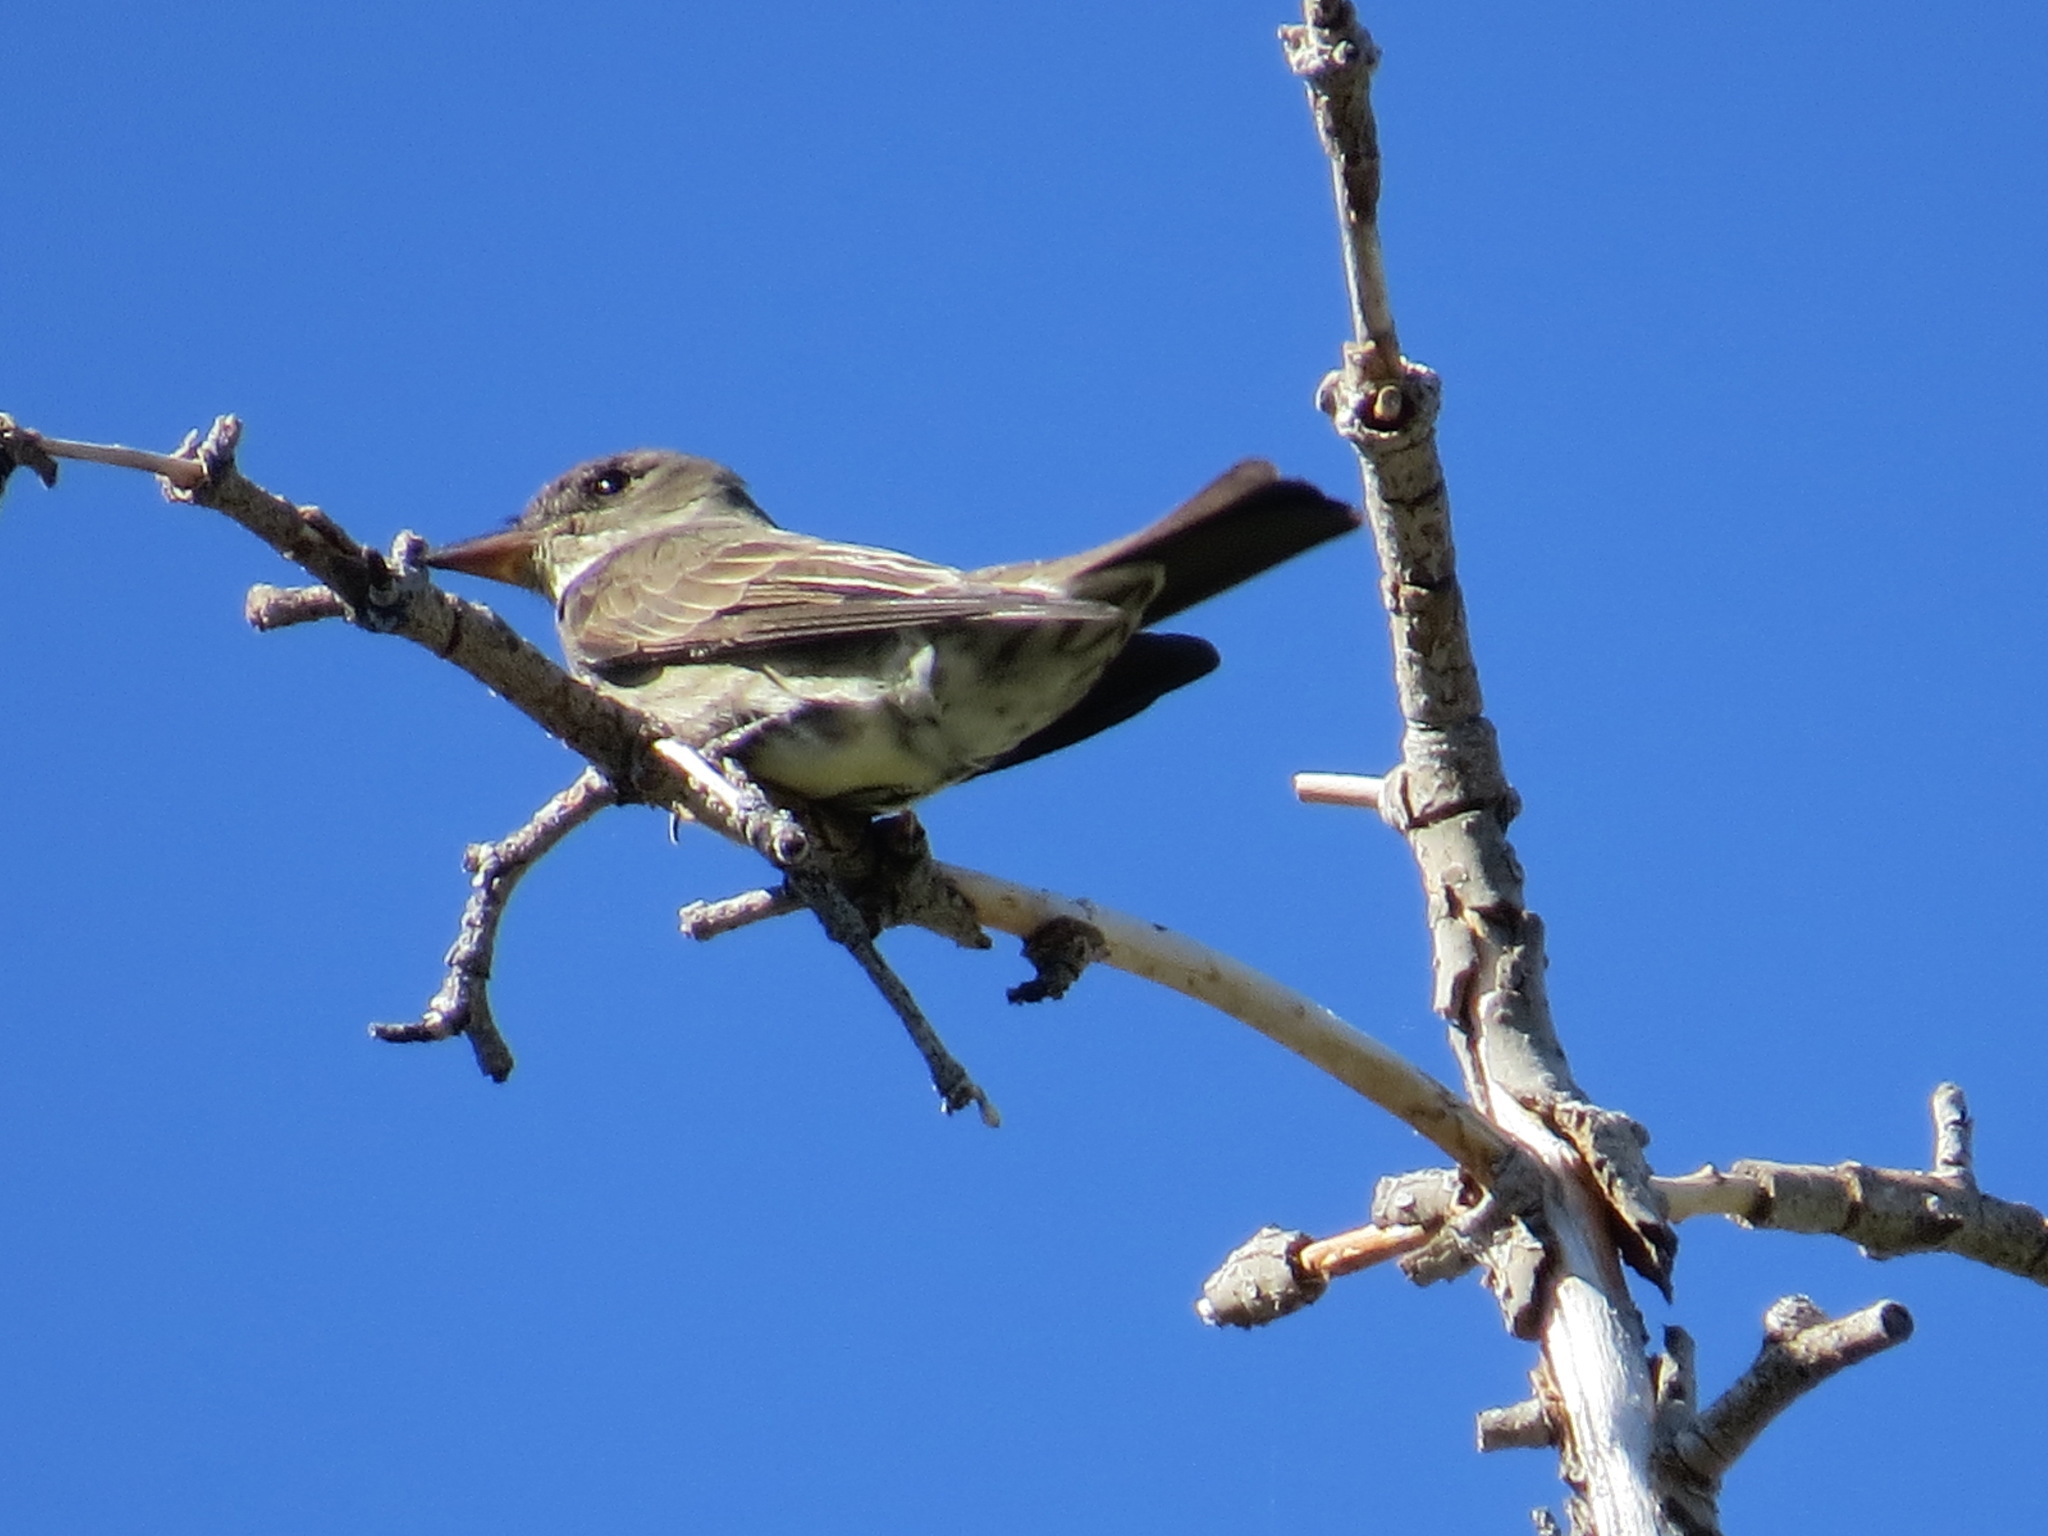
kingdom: Animalia
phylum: Chordata
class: Aves
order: Passeriformes
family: Tyrannidae
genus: Contopus
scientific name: Contopus cooperi
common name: Olive-sided flycatcher
